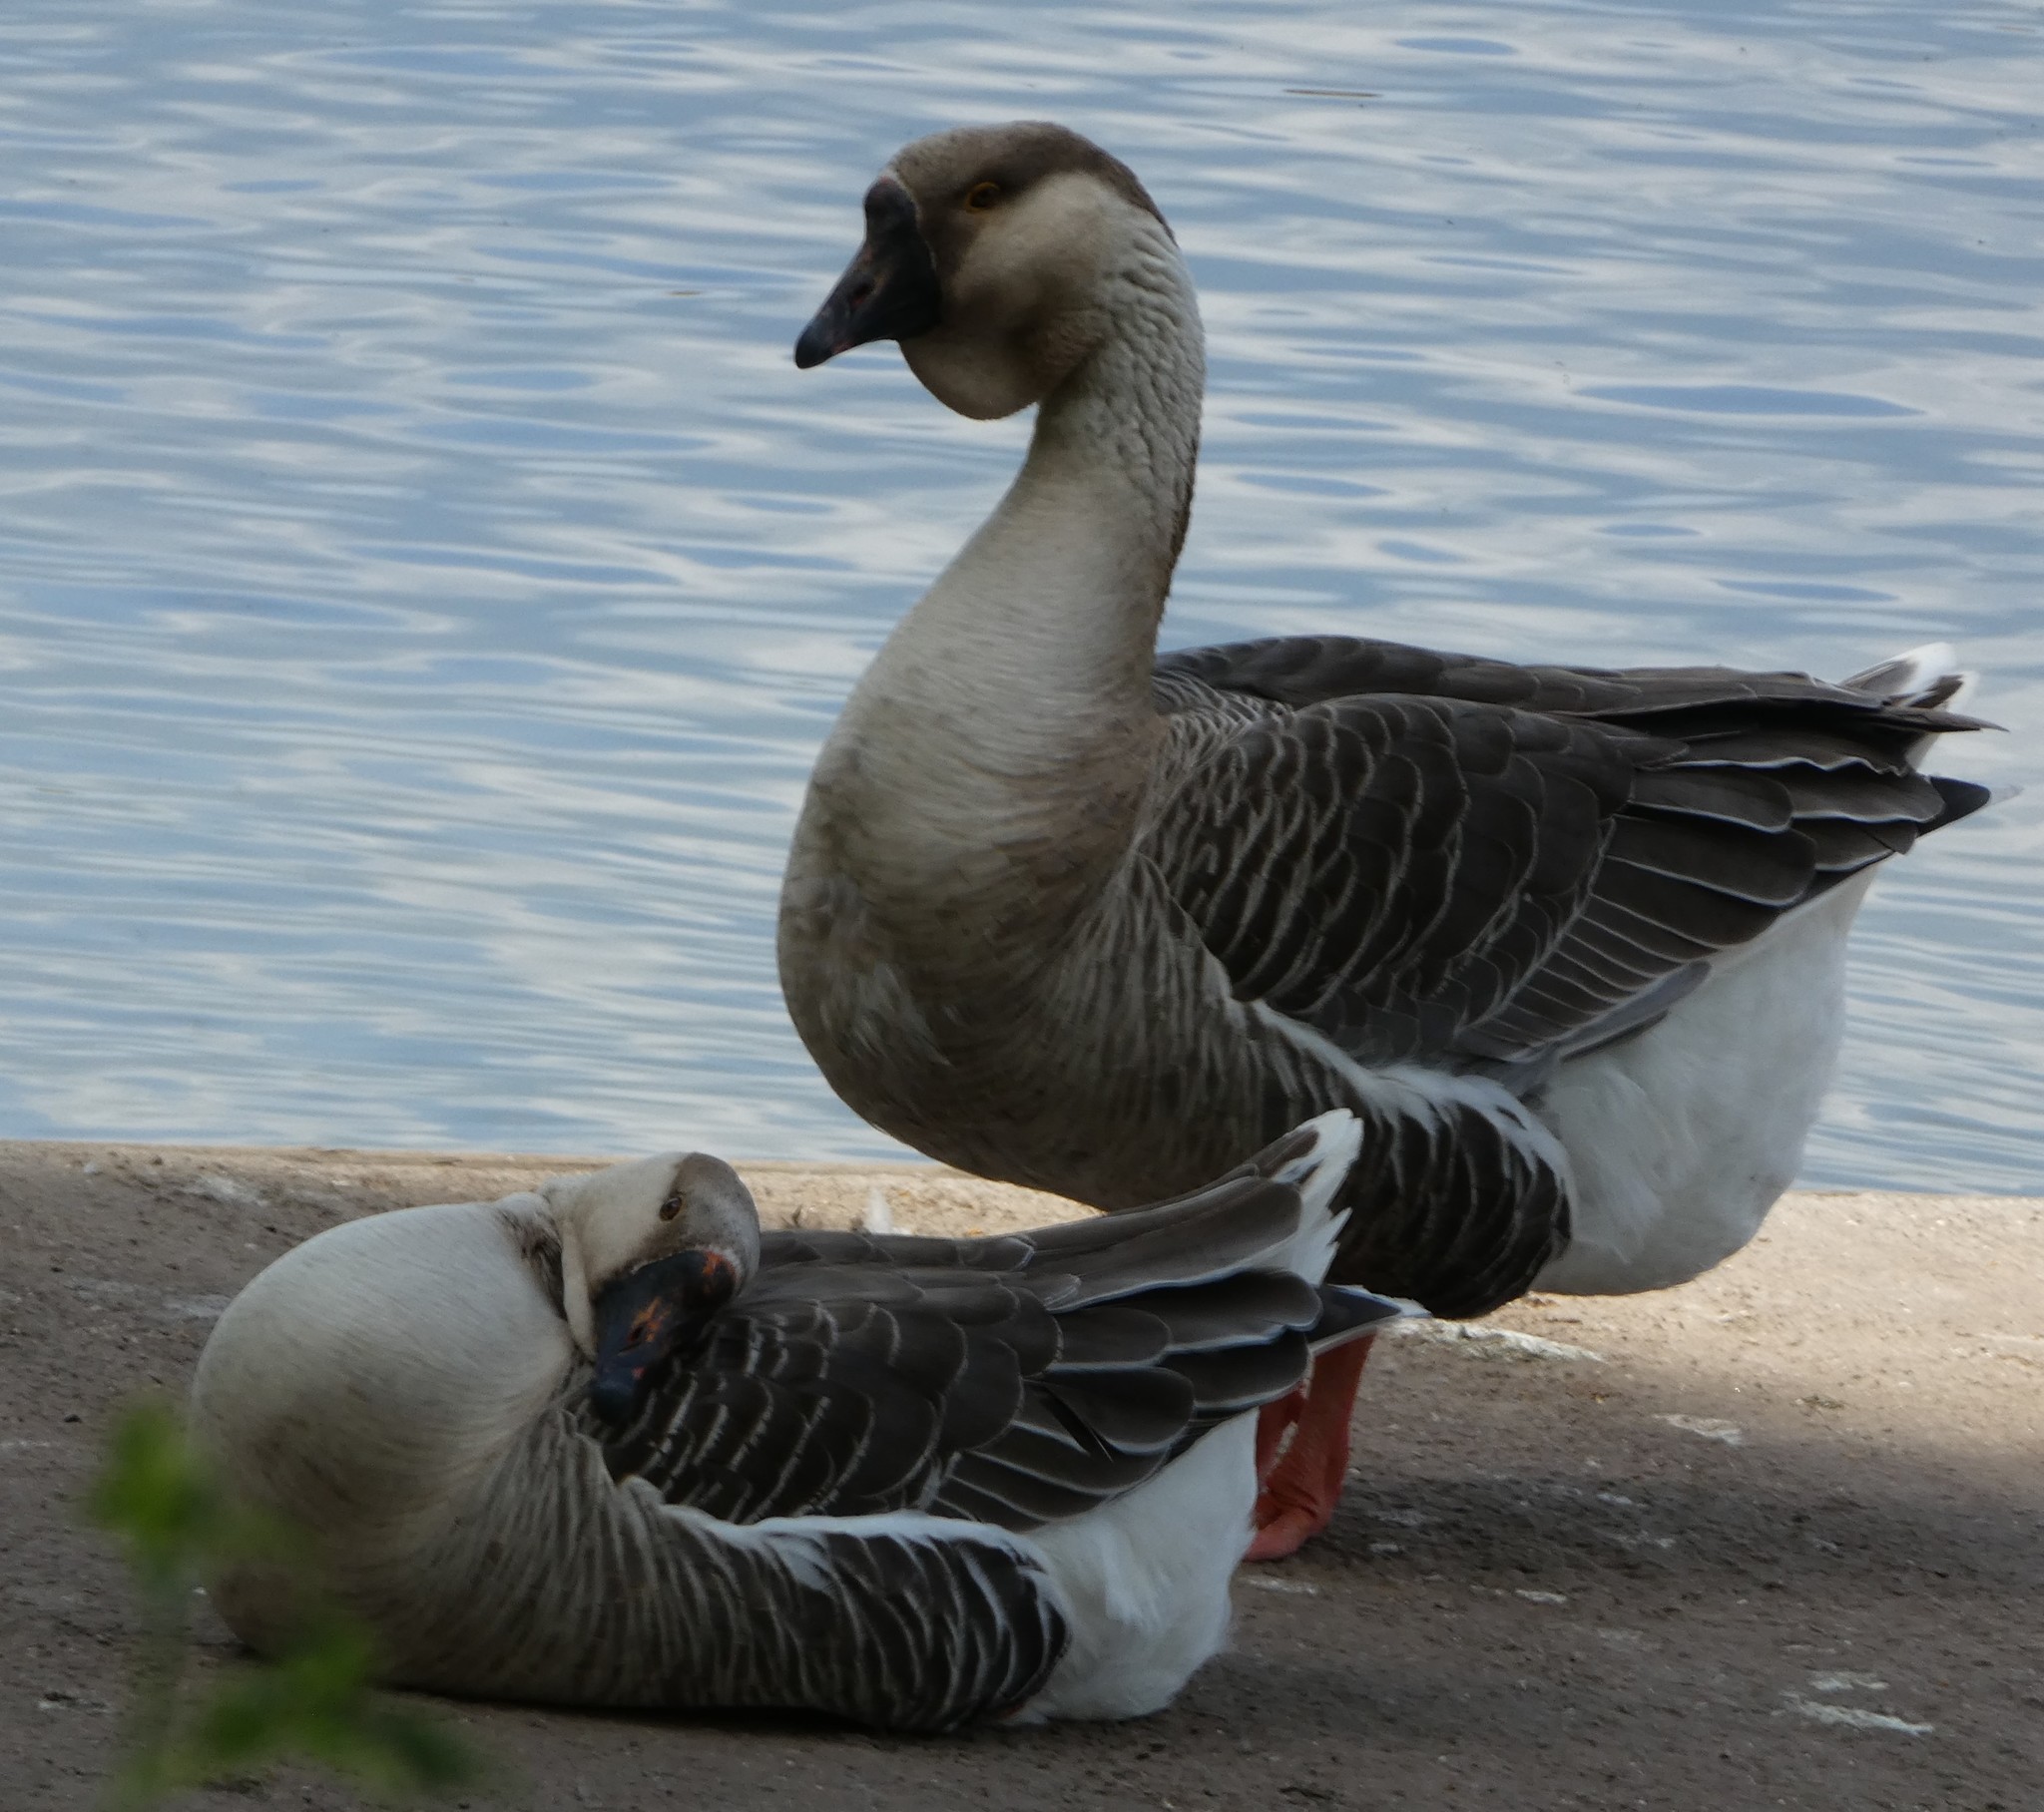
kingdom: Animalia
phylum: Chordata
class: Aves
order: Anseriformes
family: Anatidae
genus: Anser
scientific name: Anser cygnoides
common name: Swan goose
